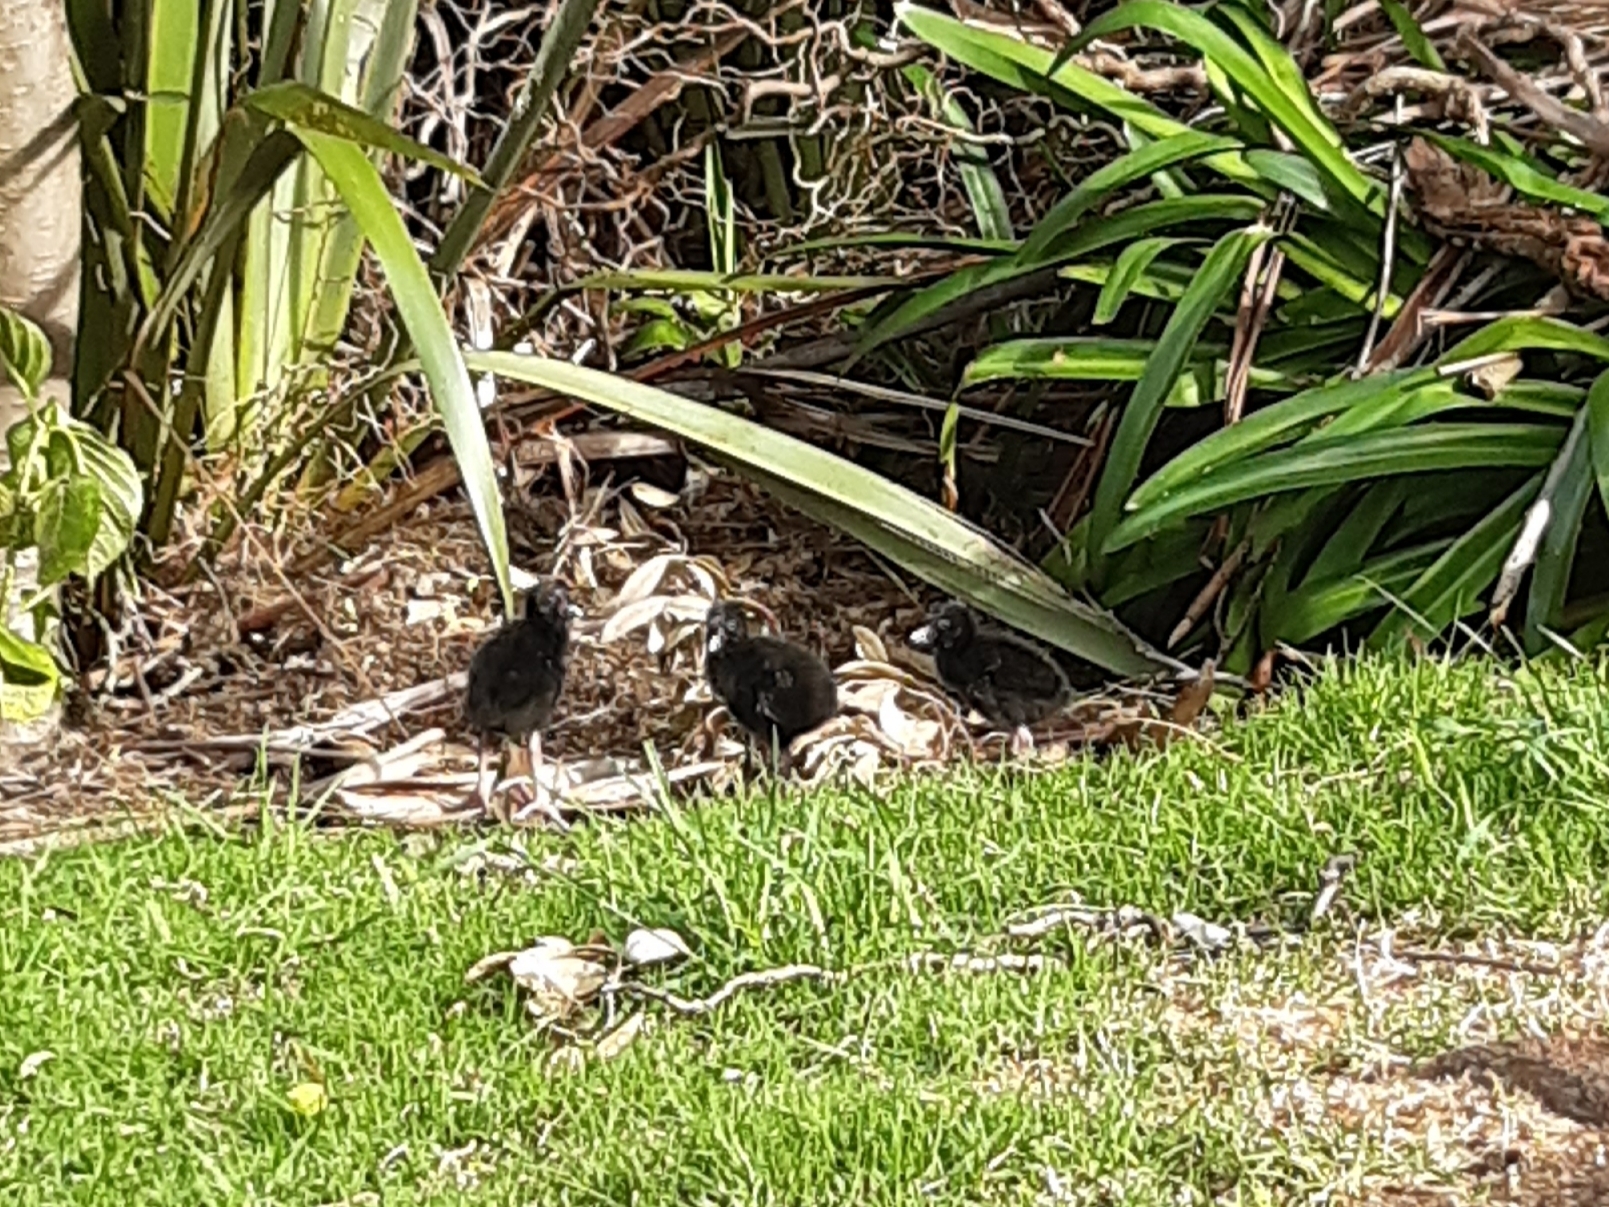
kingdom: Animalia
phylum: Chordata
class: Aves
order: Gruiformes
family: Rallidae
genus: Porphyrio
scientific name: Porphyrio melanotus
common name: Australasian swamphen
